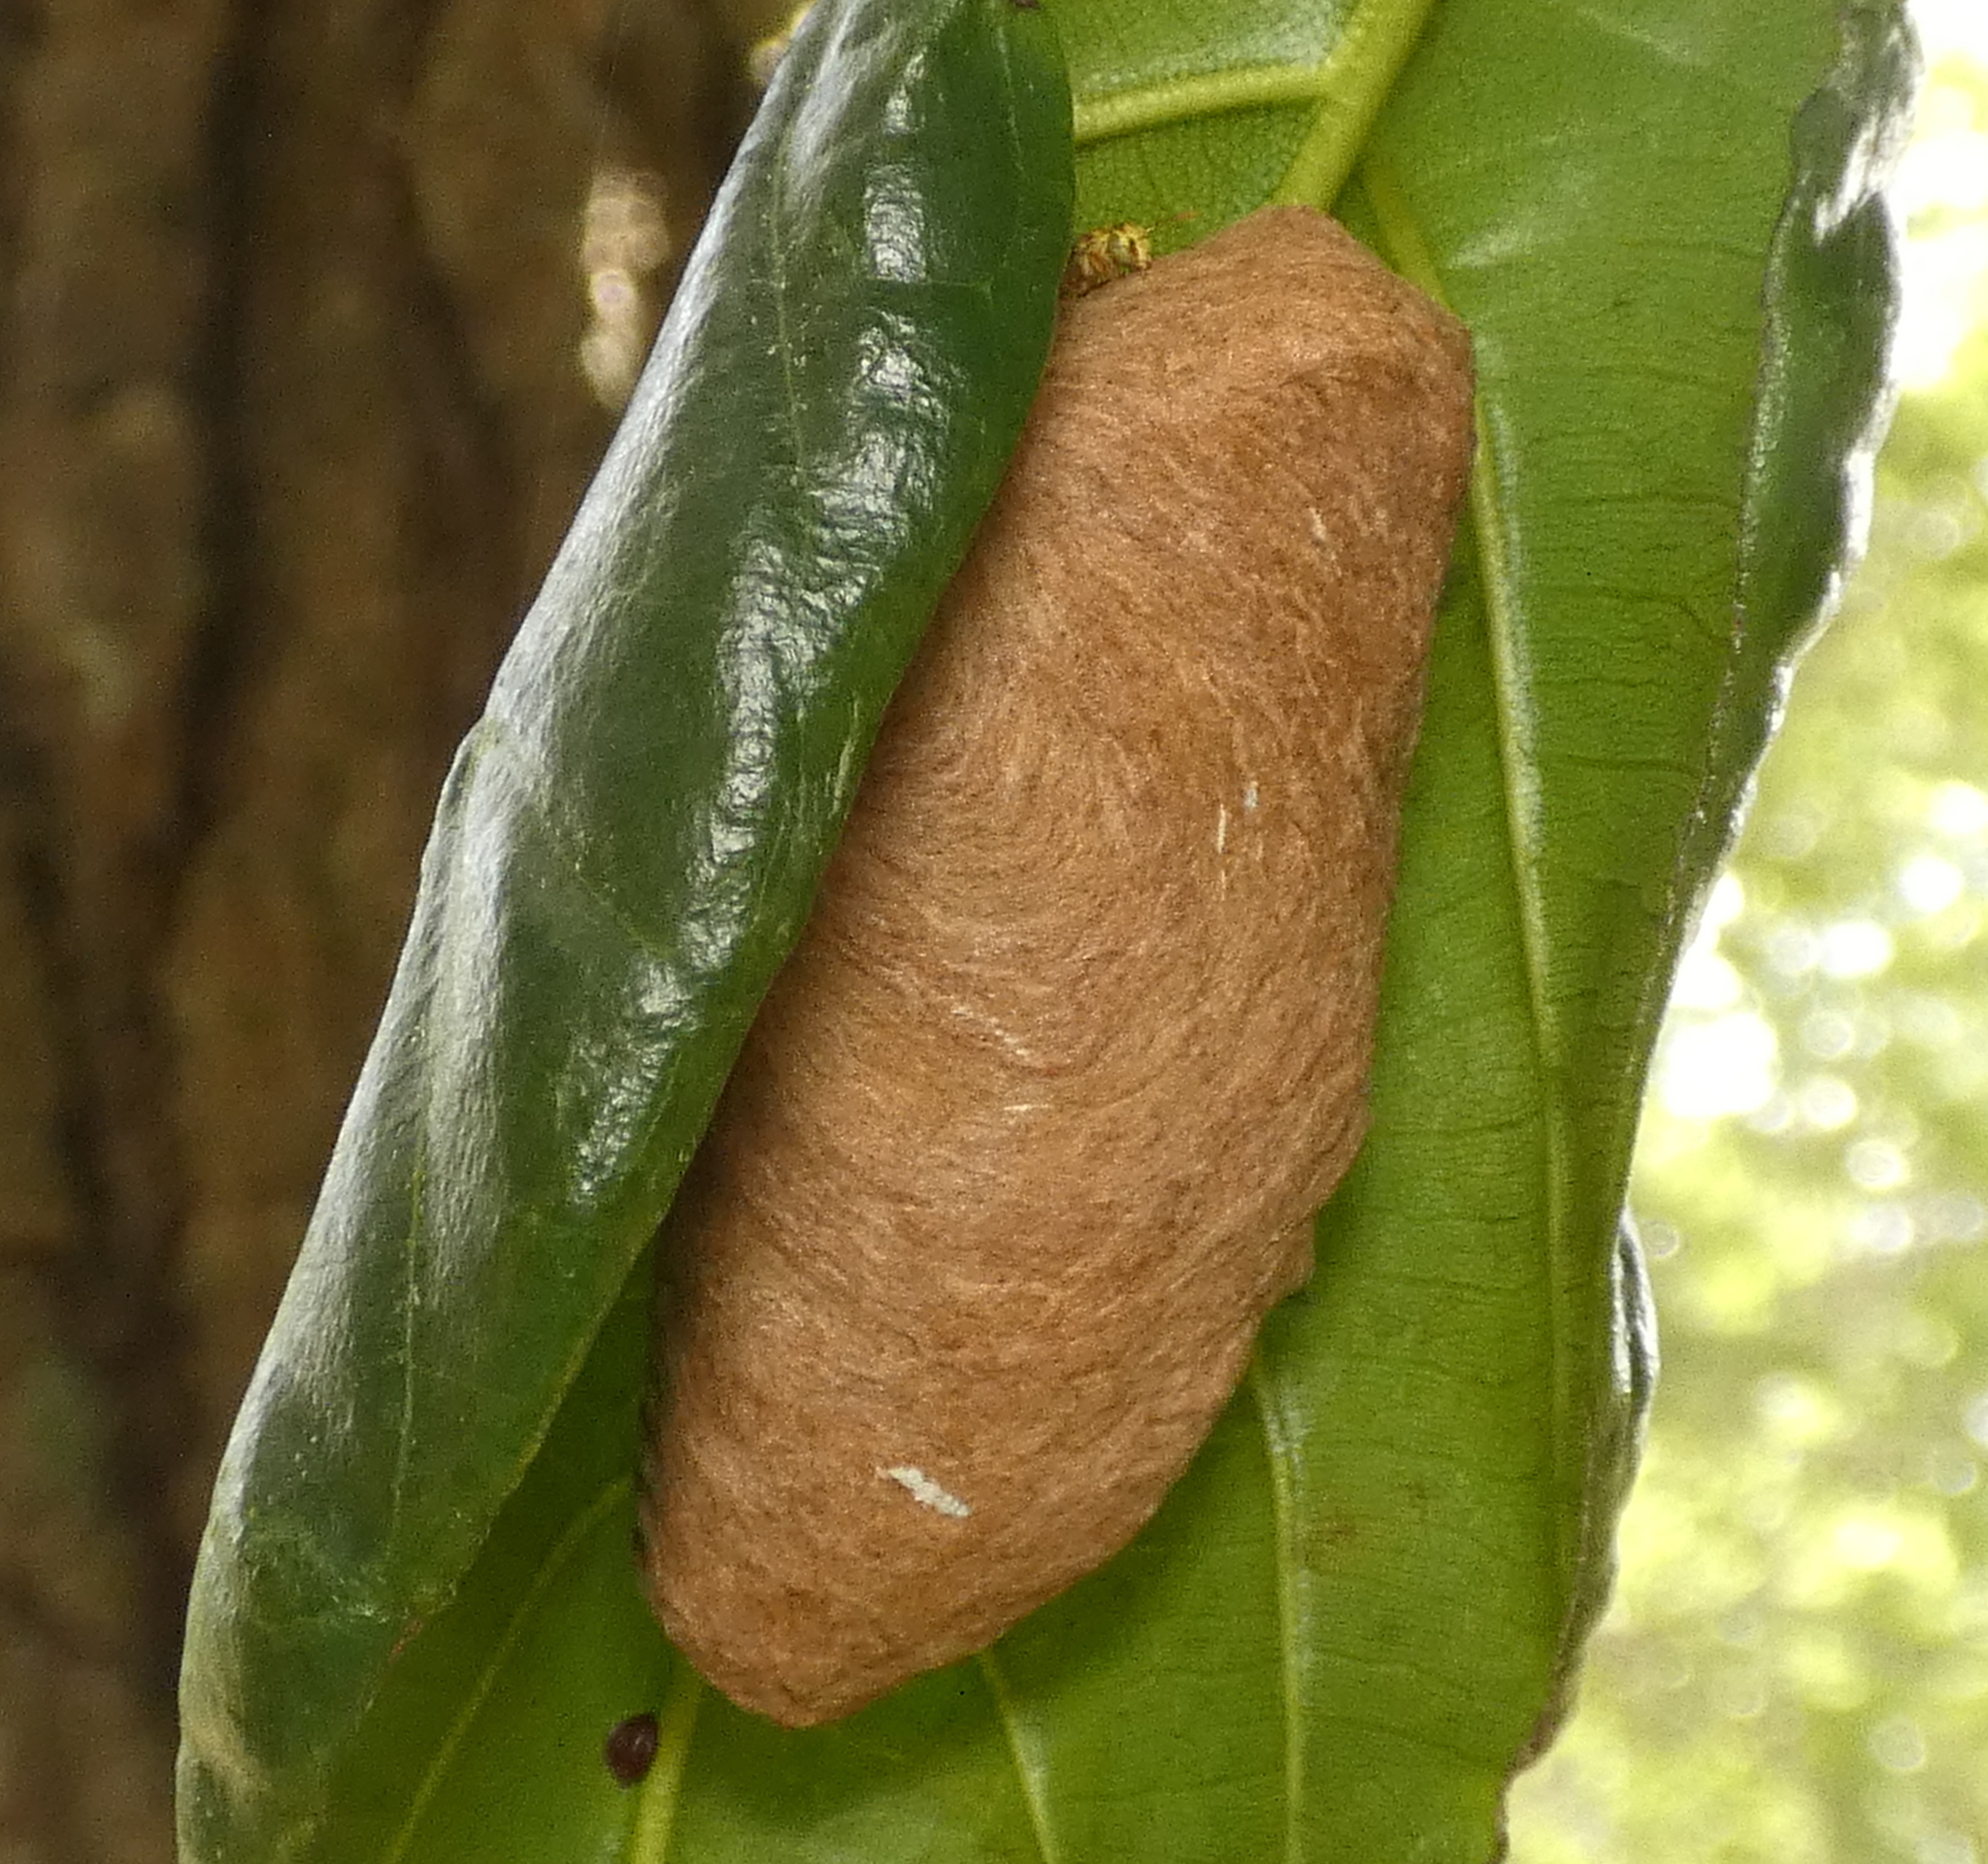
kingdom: Animalia
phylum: Arthropoda
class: Insecta
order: Hymenoptera
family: Vespidae
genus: Protopolybia
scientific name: Protopolybia potiguara
